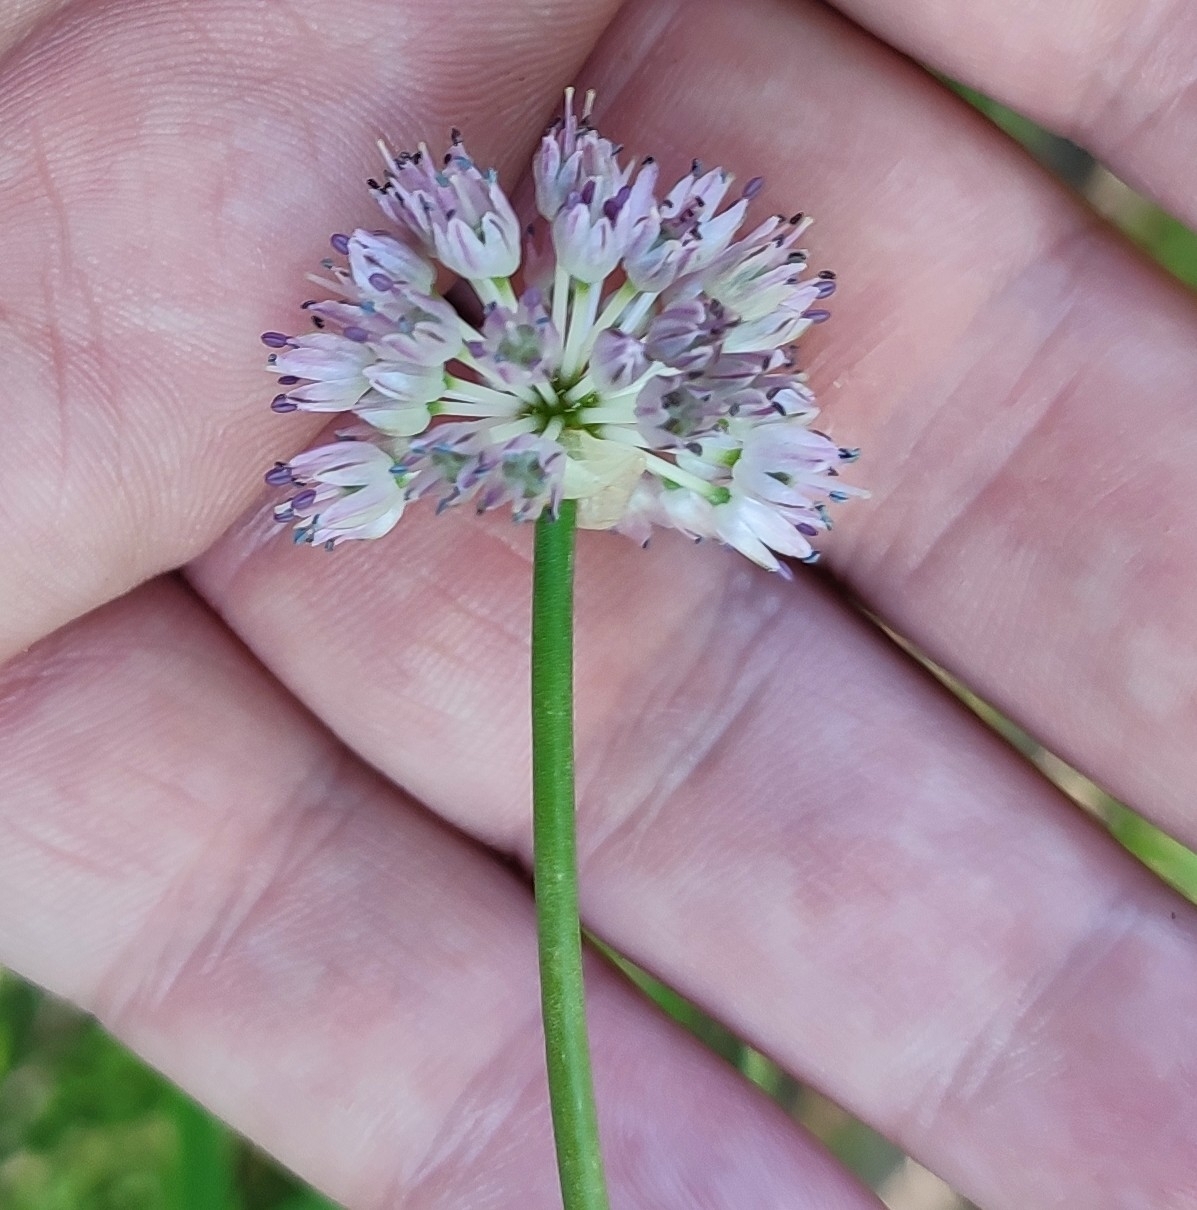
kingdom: Plantae
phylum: Tracheophyta
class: Liliopsida
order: Asparagales
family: Amaryllidaceae
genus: Allium
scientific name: Allium strictum
